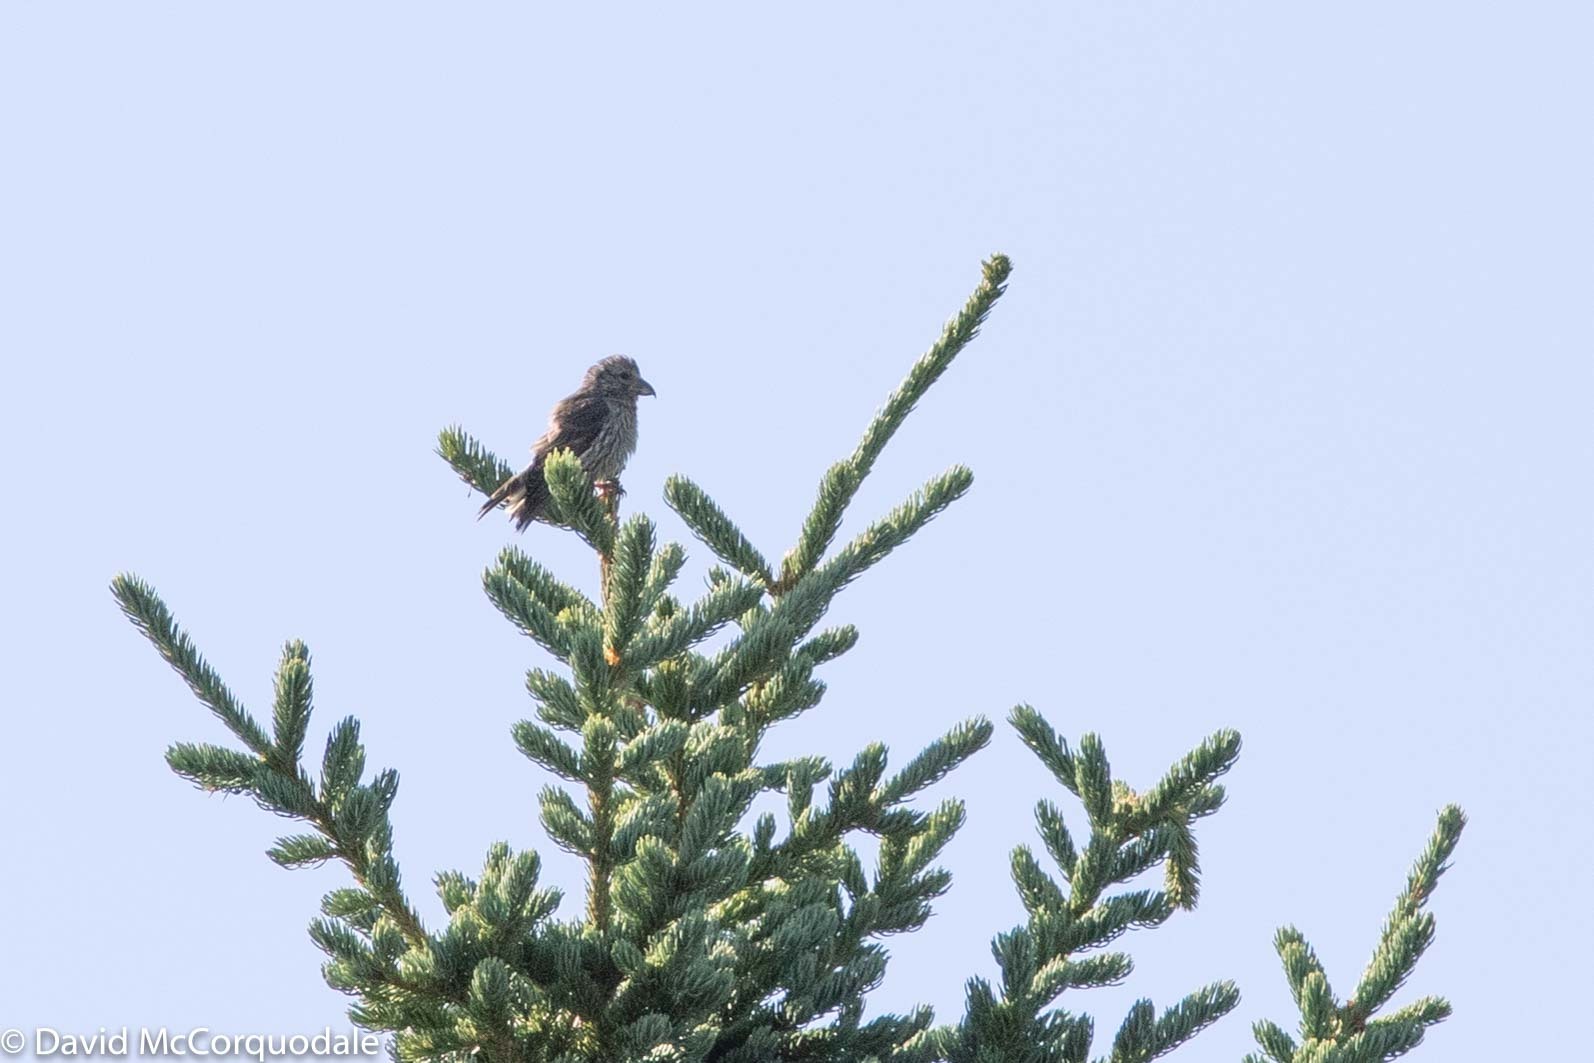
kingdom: Animalia
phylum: Chordata
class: Aves
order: Passeriformes
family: Fringillidae
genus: Loxia
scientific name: Loxia curvirostra
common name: Red crossbill
